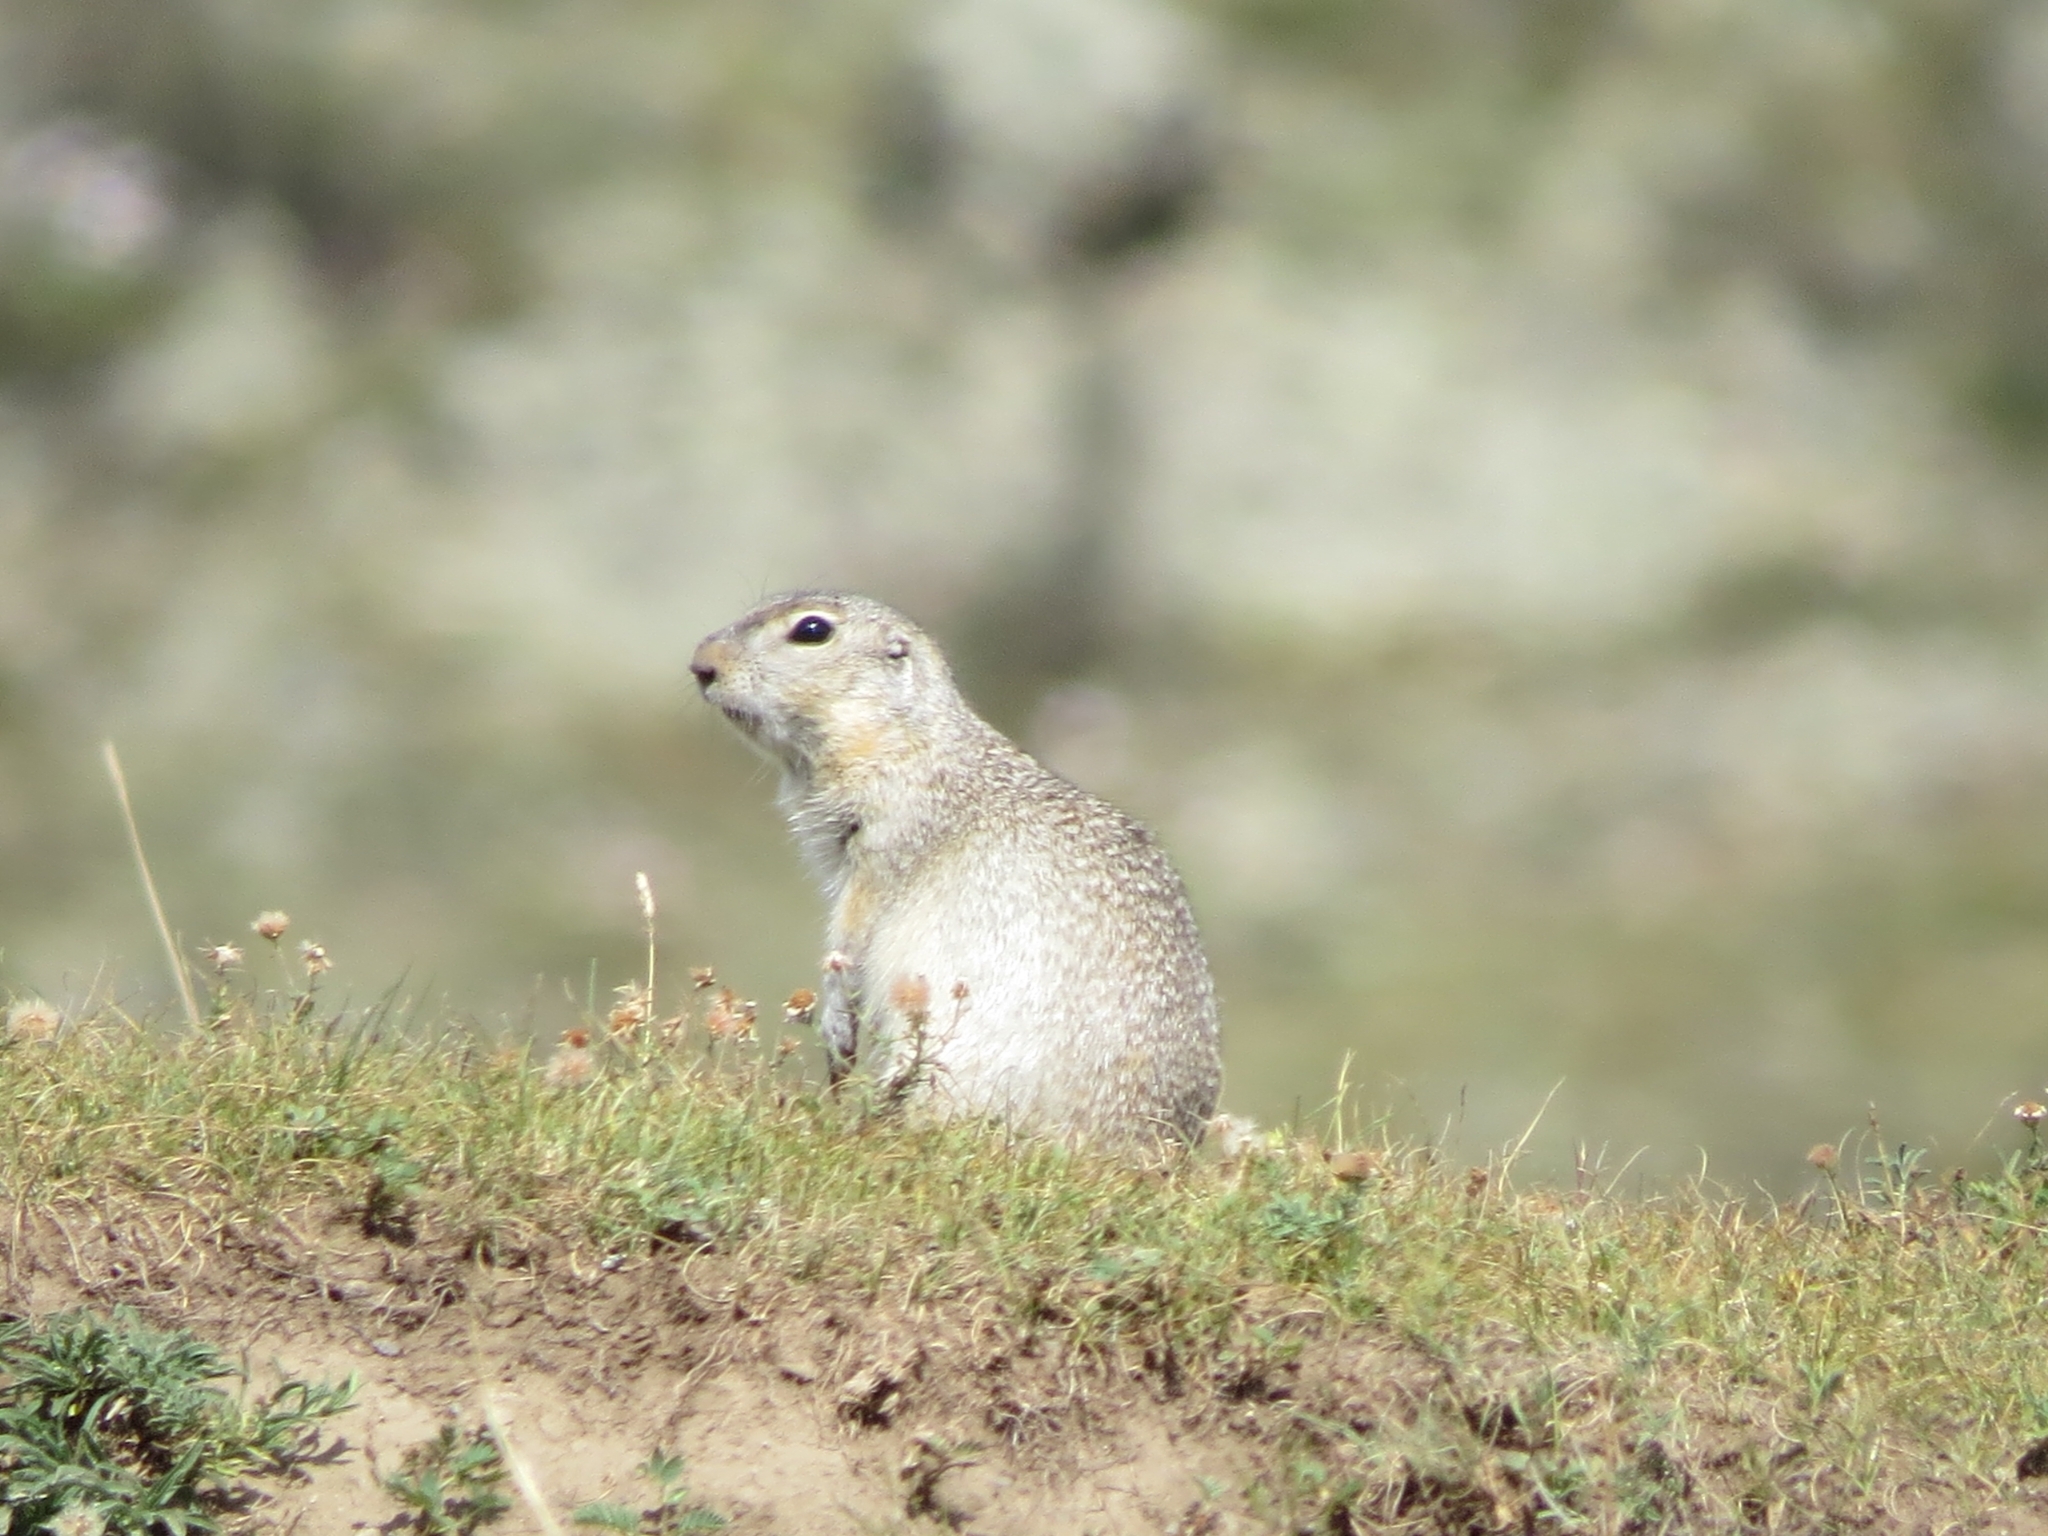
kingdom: Animalia
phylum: Chordata
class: Mammalia
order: Rodentia
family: Sciuridae
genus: Urocitellus
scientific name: Urocitellus undulatus
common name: Long-tailed ground squirrel
